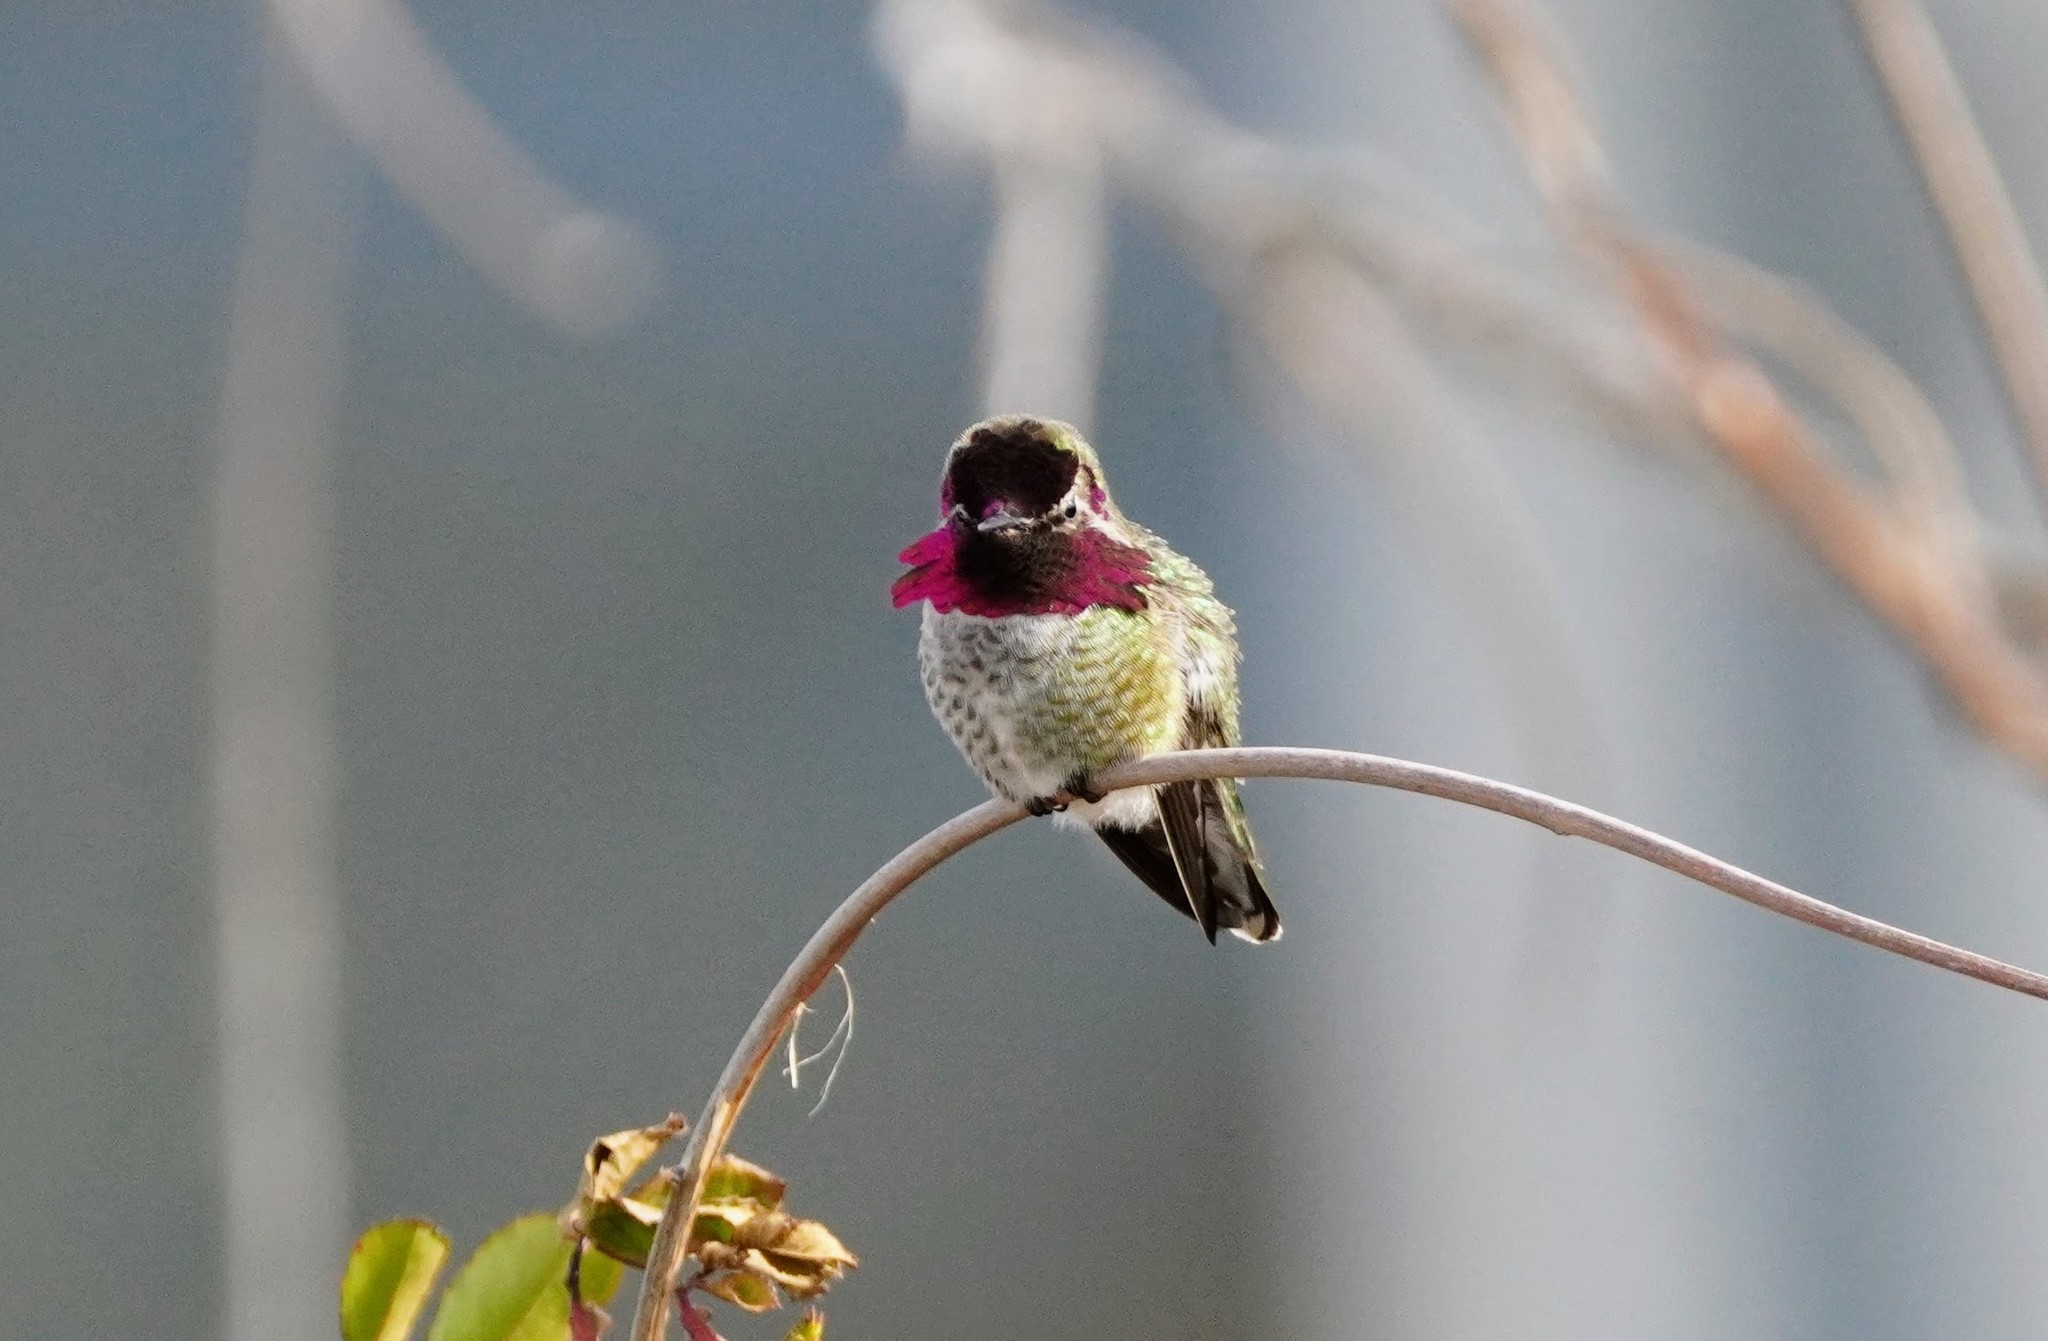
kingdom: Animalia
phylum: Chordata
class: Aves
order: Apodiformes
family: Trochilidae
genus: Calypte
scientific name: Calypte anna
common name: Anna's hummingbird
